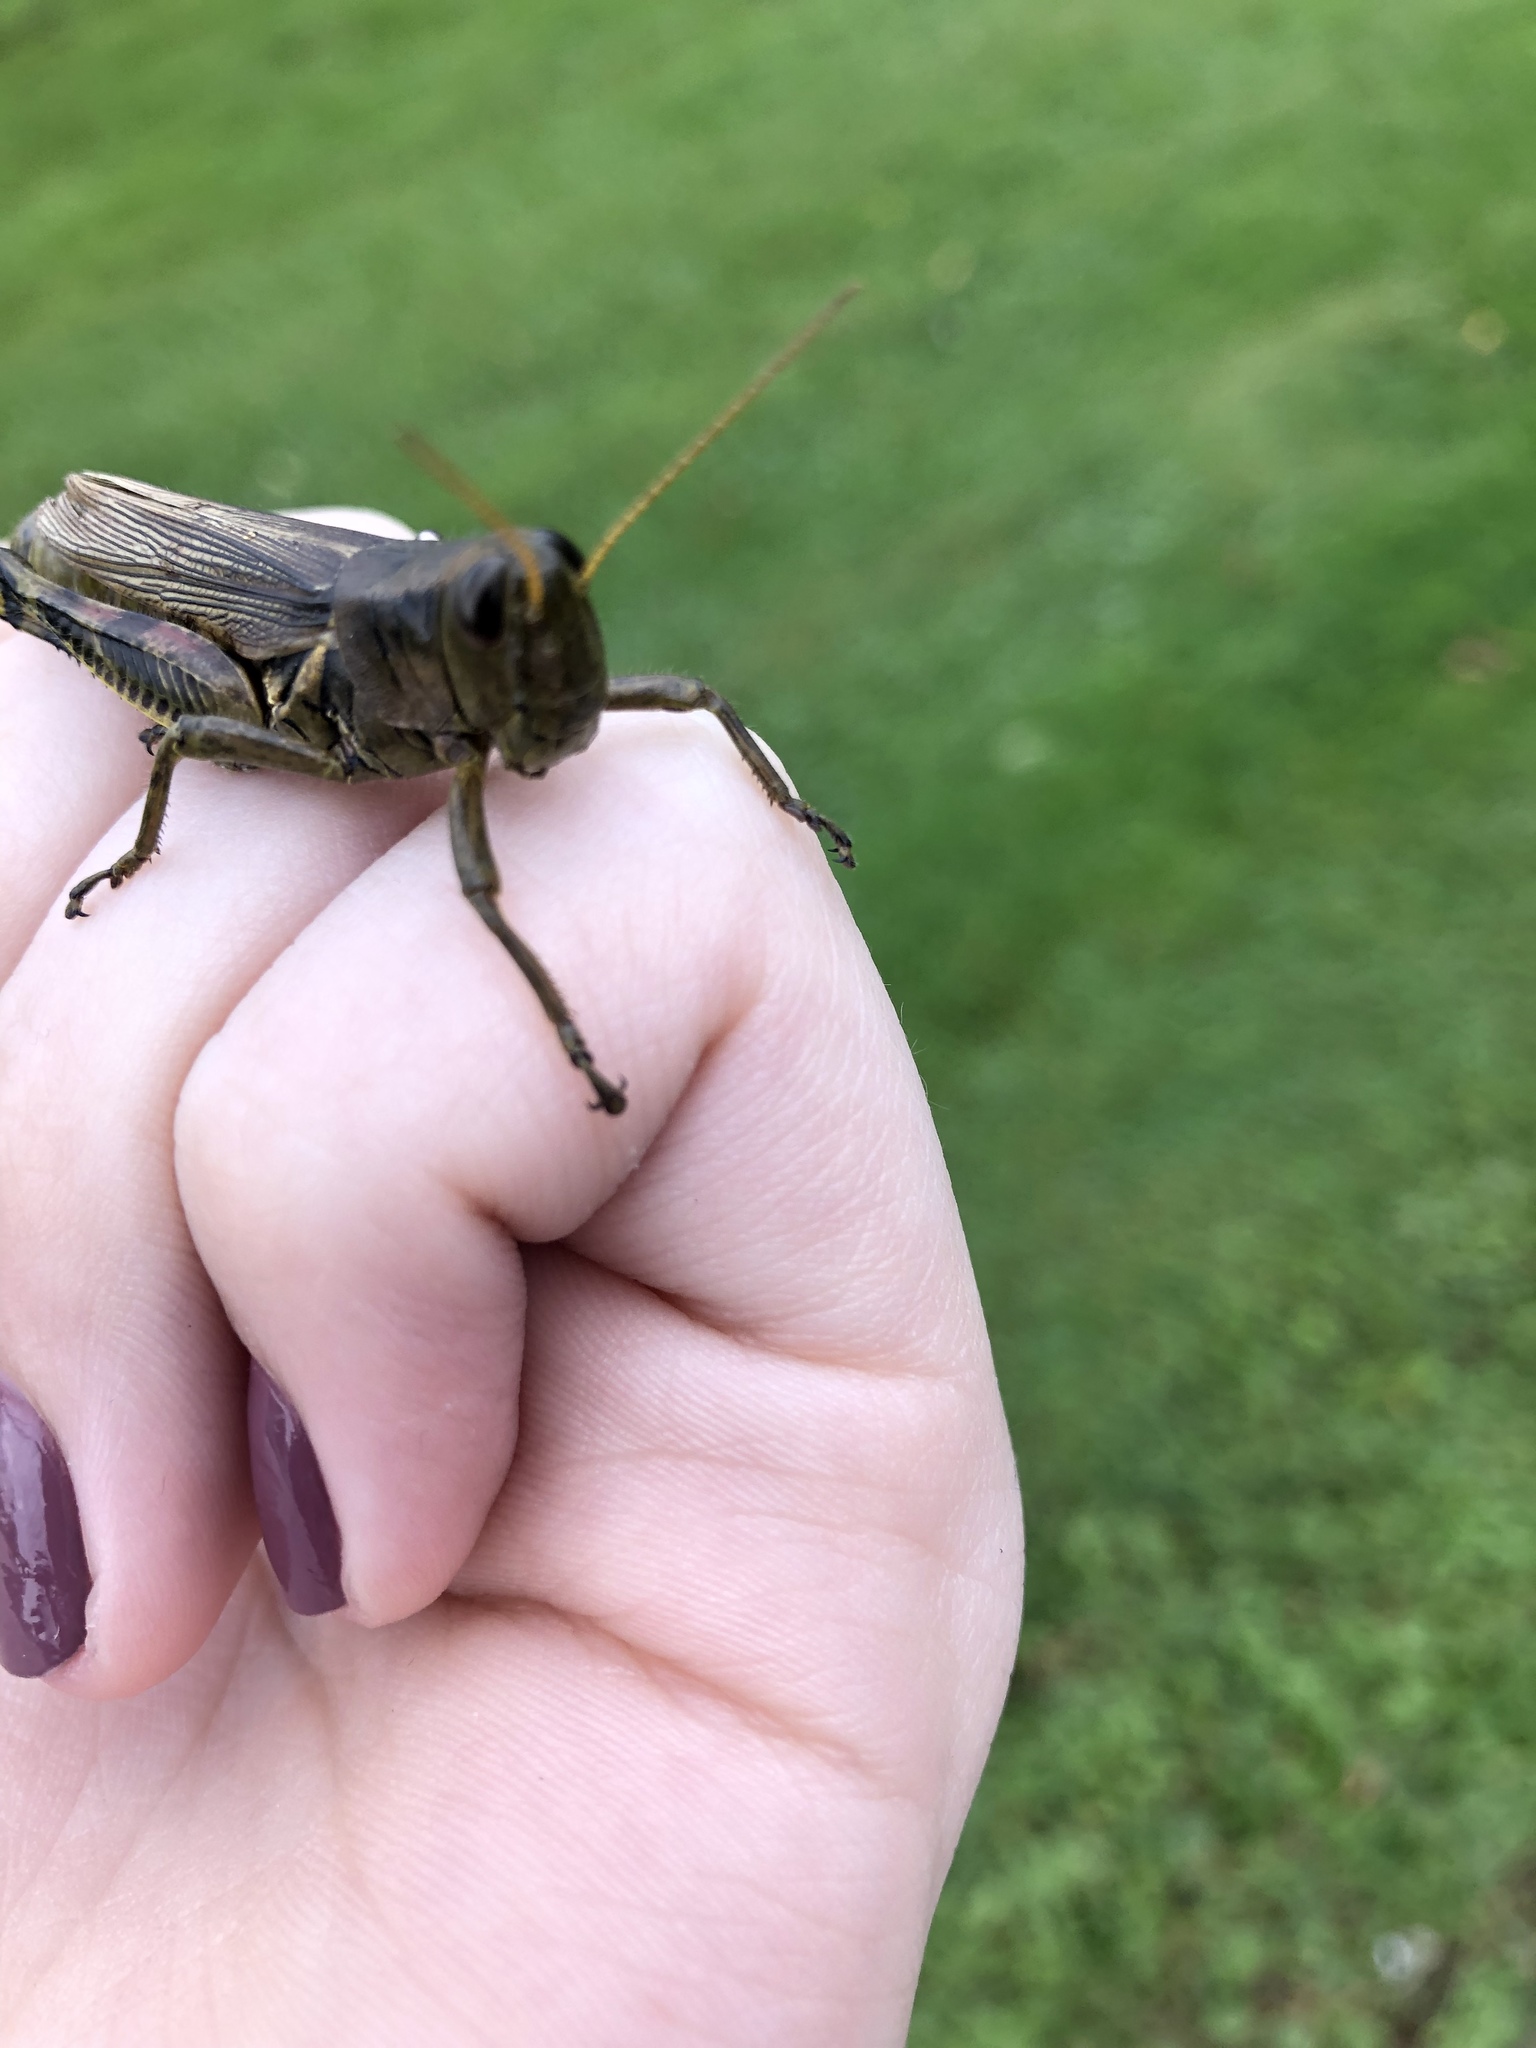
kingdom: Animalia
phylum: Arthropoda
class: Insecta
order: Orthoptera
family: Acrididae
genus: Melanoplus
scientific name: Melanoplus differentialis
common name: Differential grasshopper
